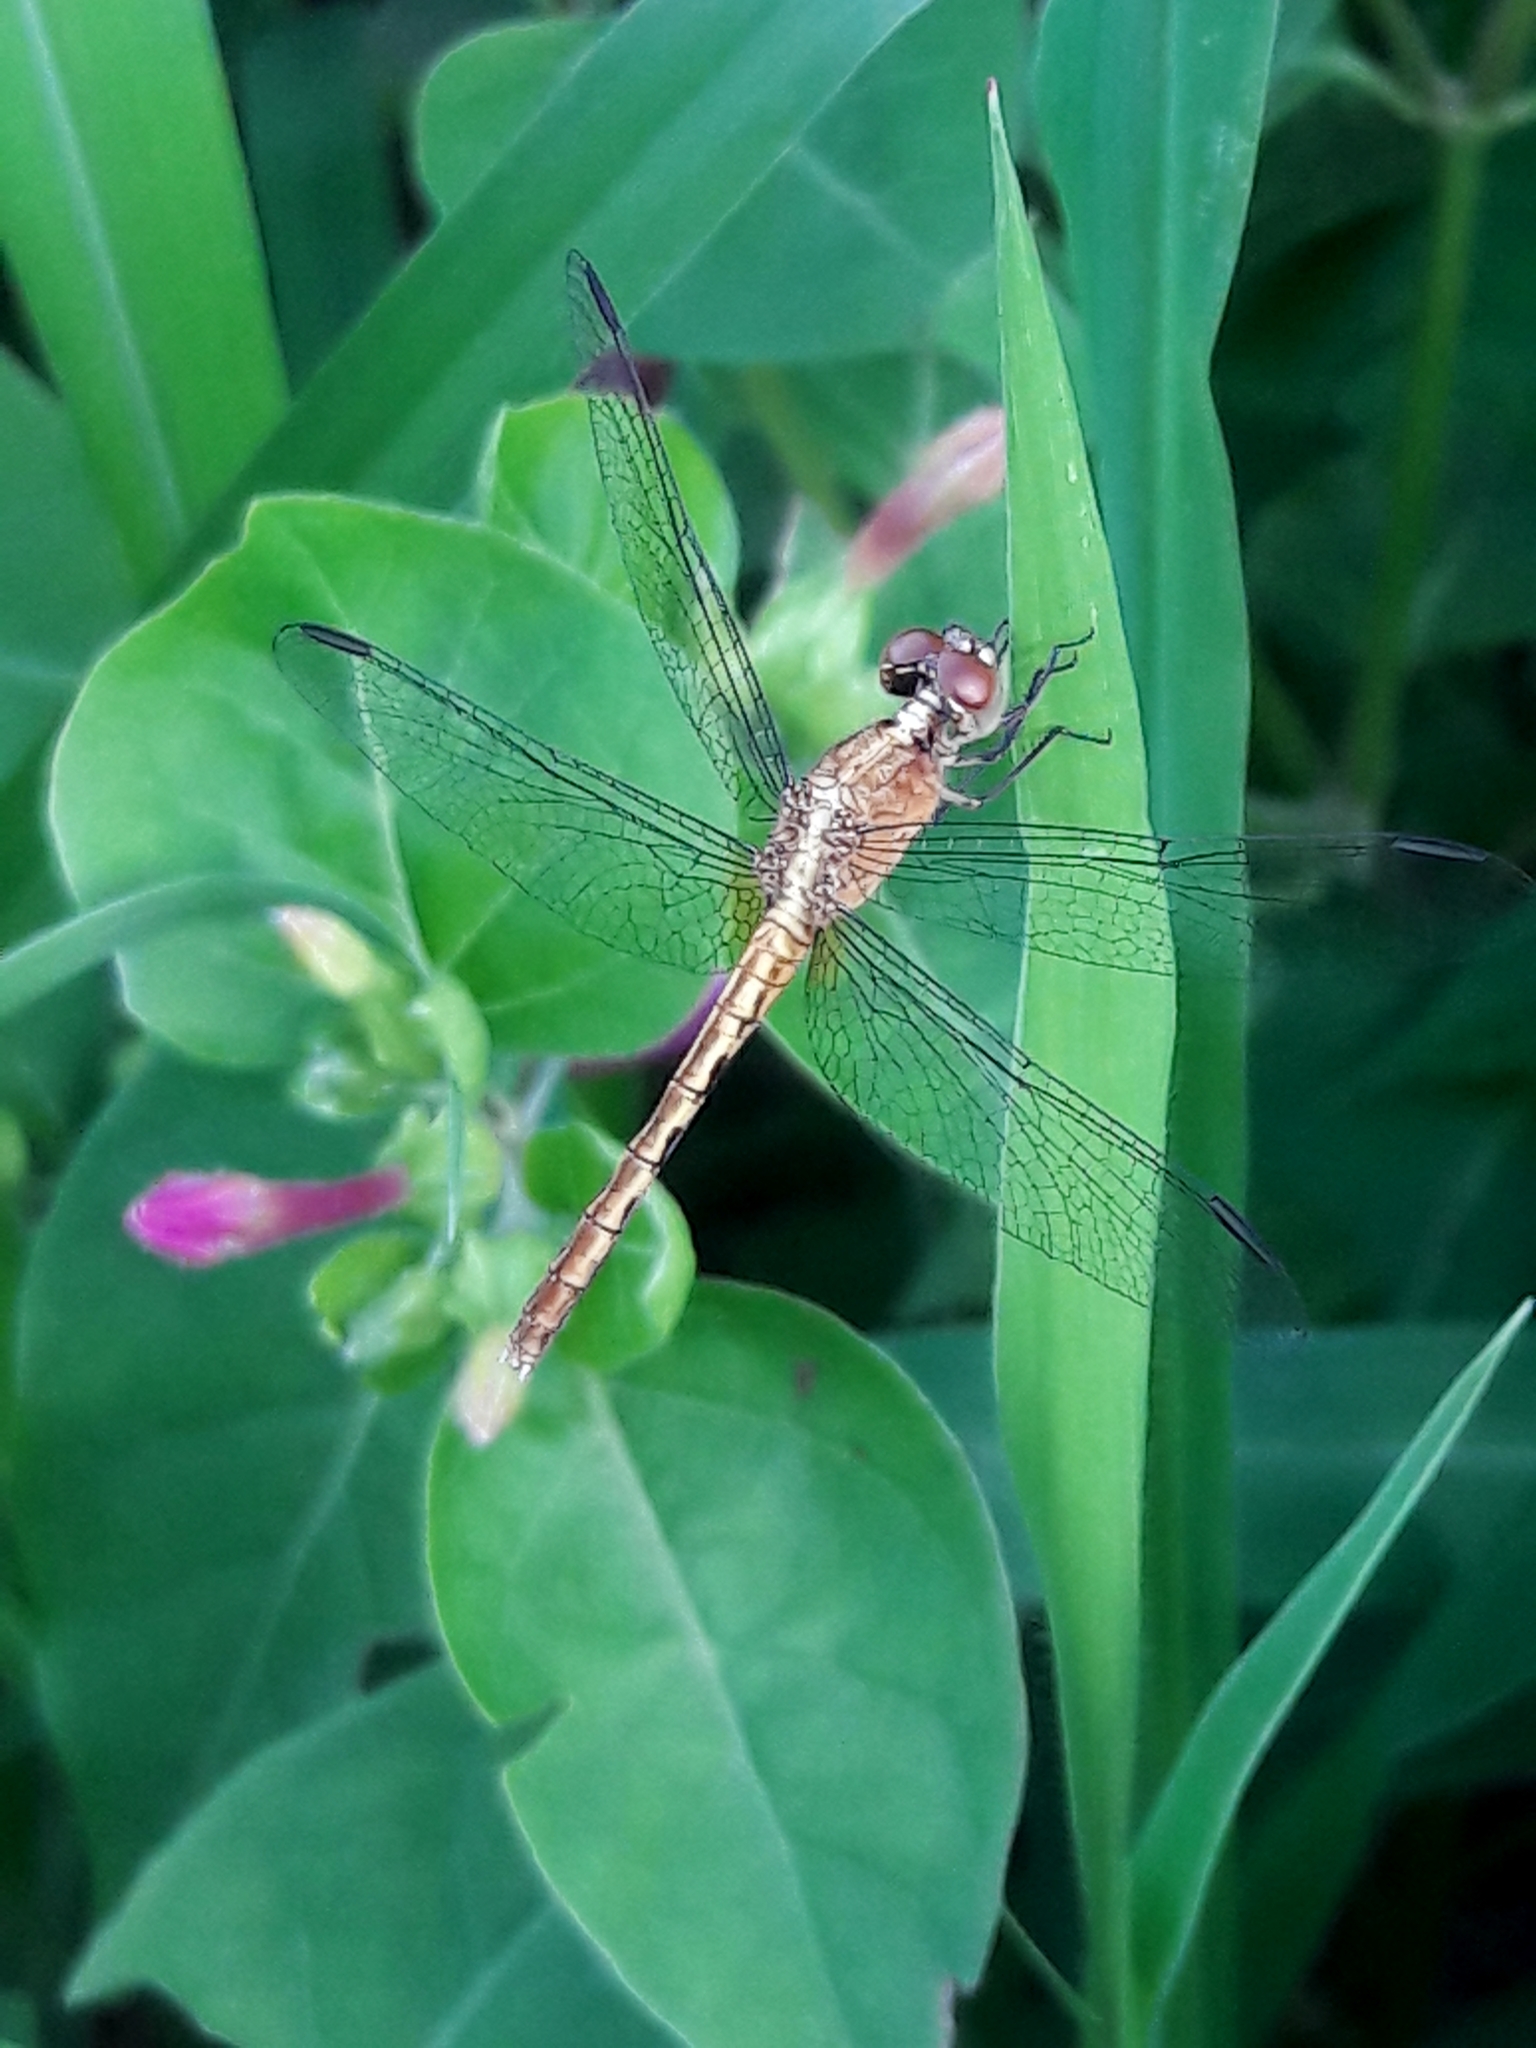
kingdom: Animalia
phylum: Arthropoda
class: Insecta
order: Odonata
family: Libellulidae
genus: Erythrodiplax
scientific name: Erythrodiplax umbrata
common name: Band-winged dragonlet
